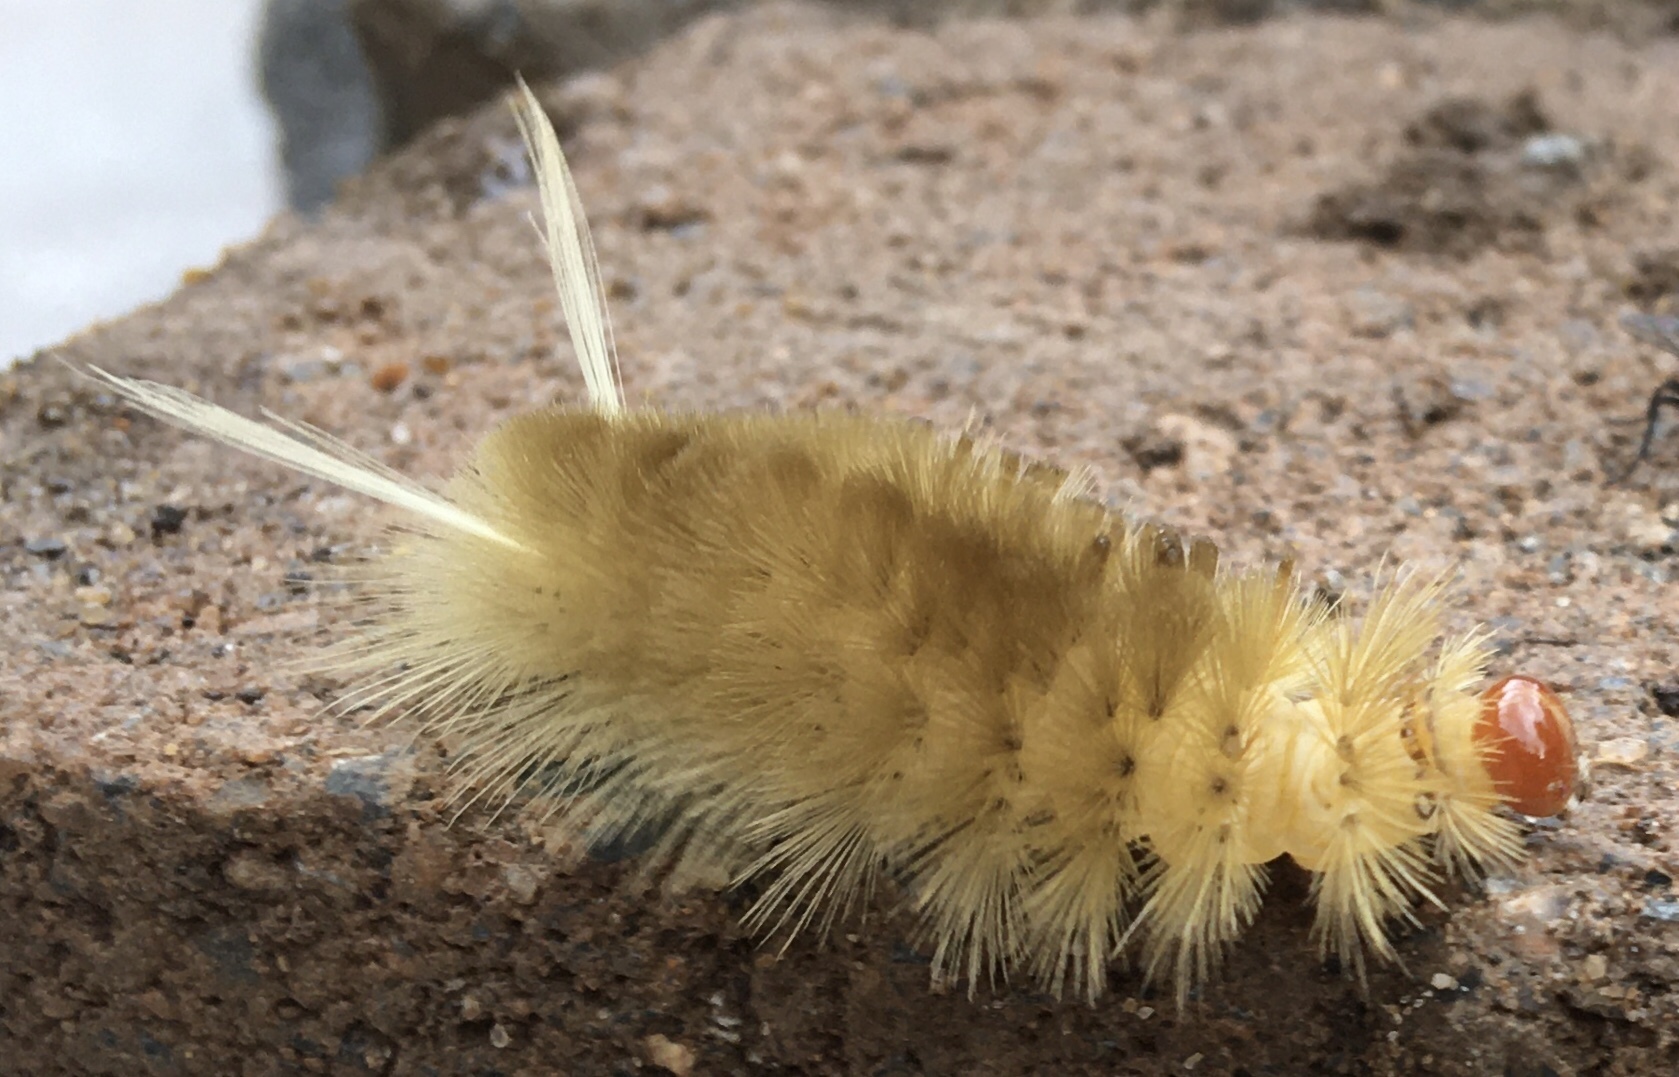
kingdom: Animalia
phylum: Arthropoda
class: Insecta
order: Lepidoptera
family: Erebidae
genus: Halysidota
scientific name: Halysidota harrisii
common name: Sycamore tussock moth
